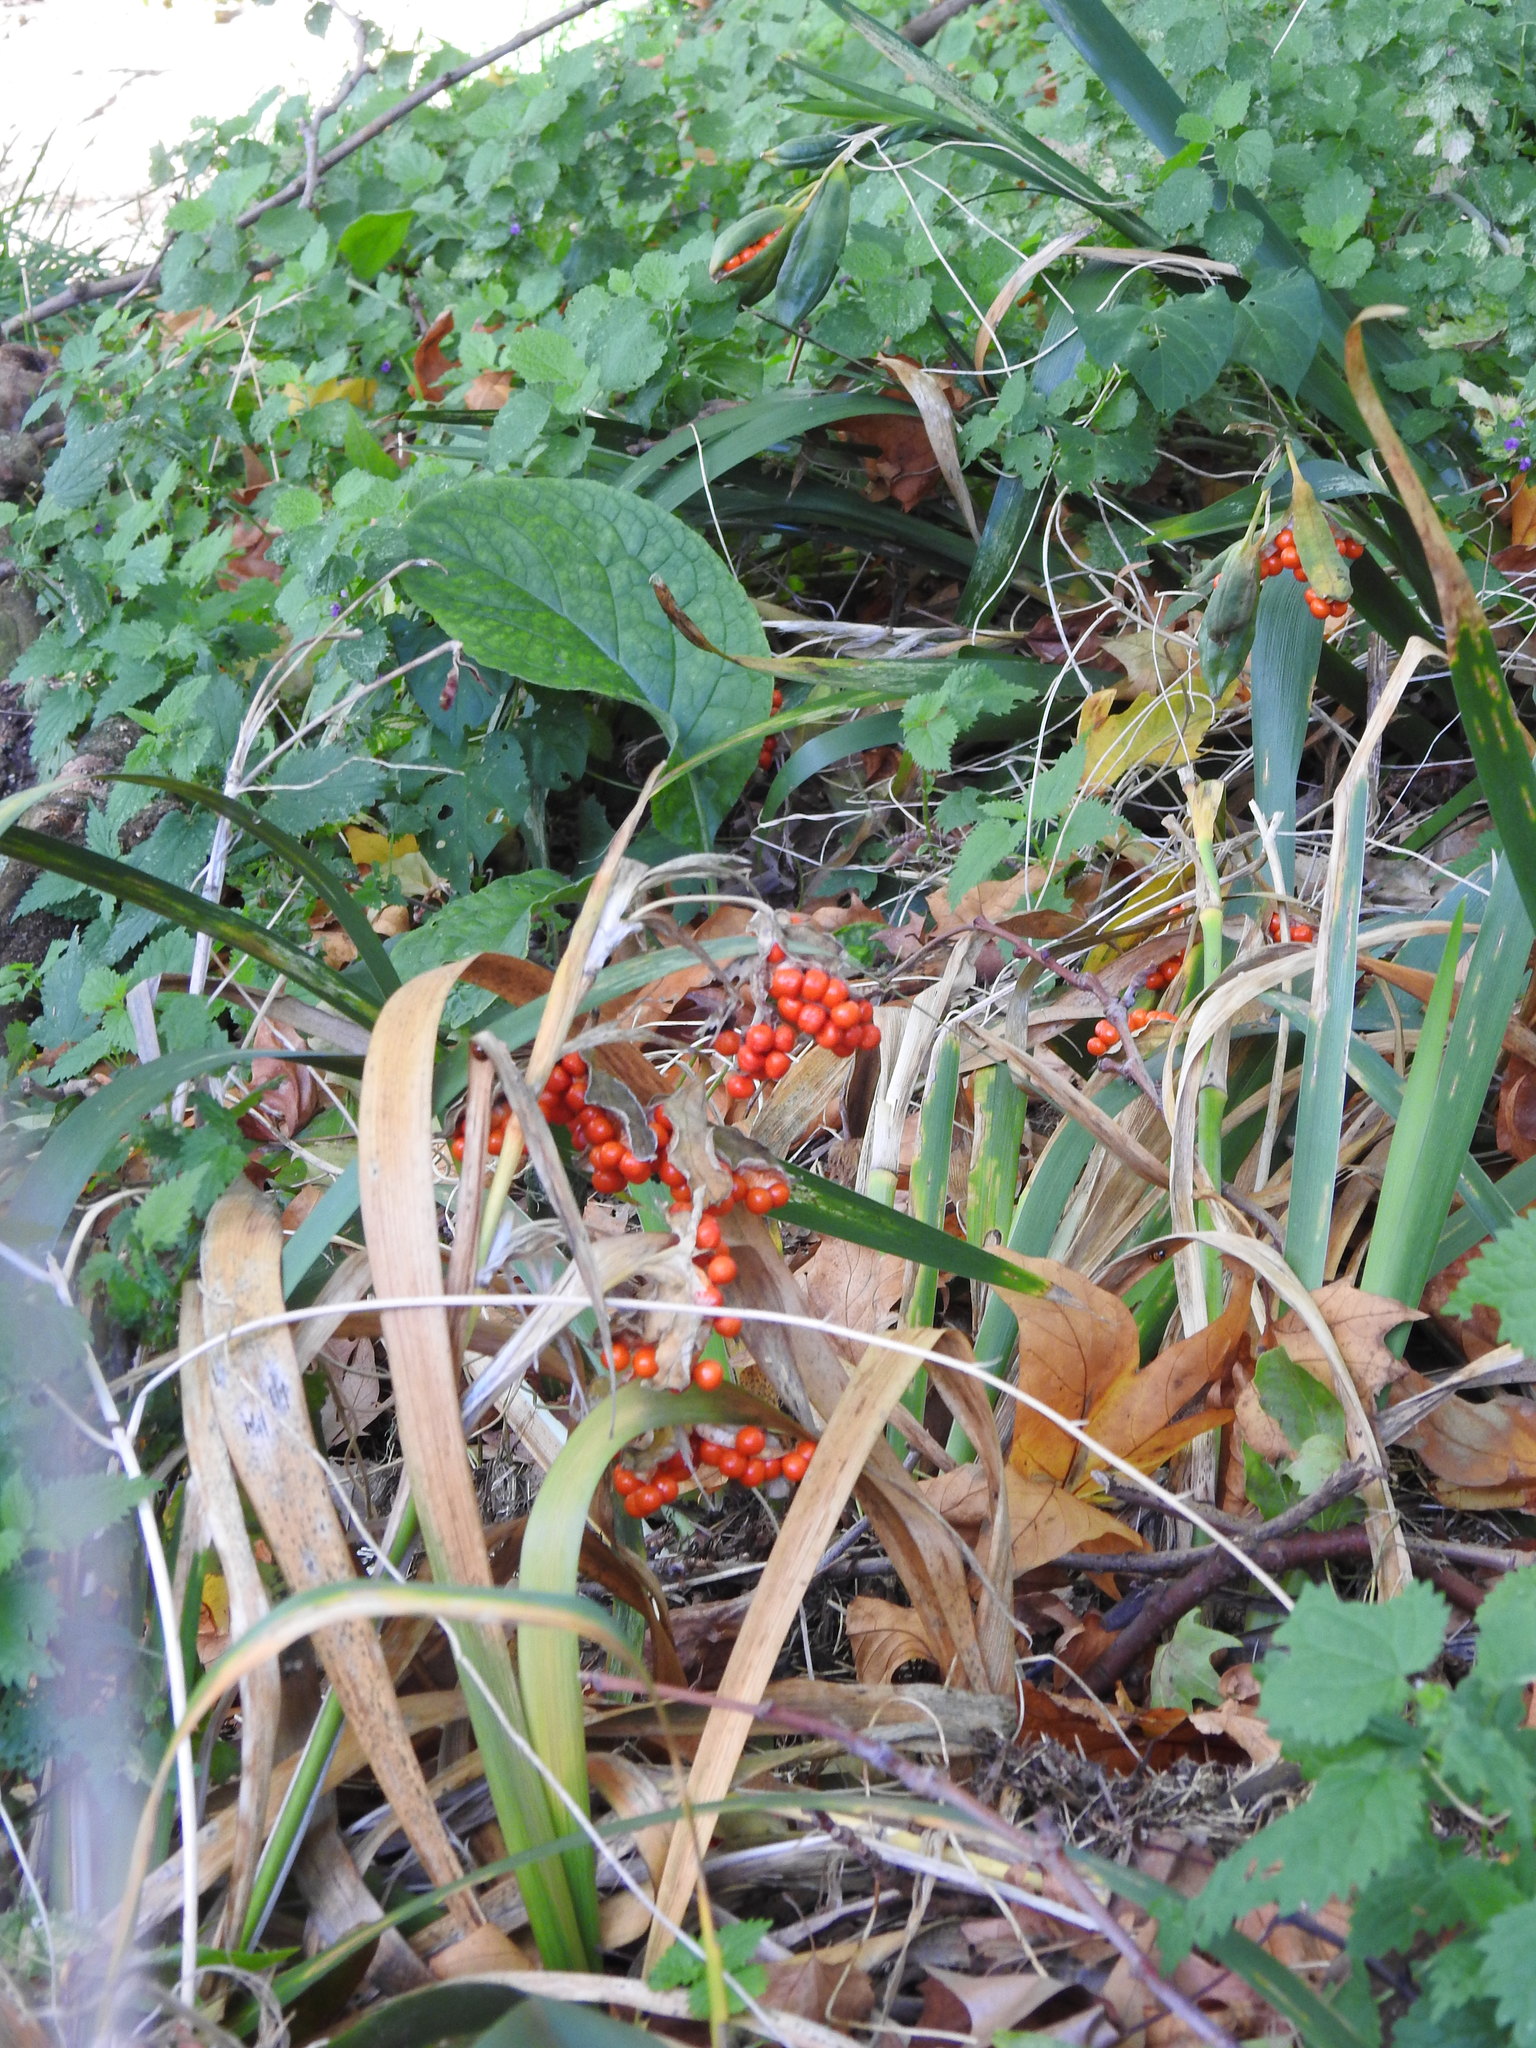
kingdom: Plantae
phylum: Tracheophyta
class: Liliopsida
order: Asparagales
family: Iridaceae
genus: Iris
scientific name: Iris foetidissima
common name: Stinking iris
